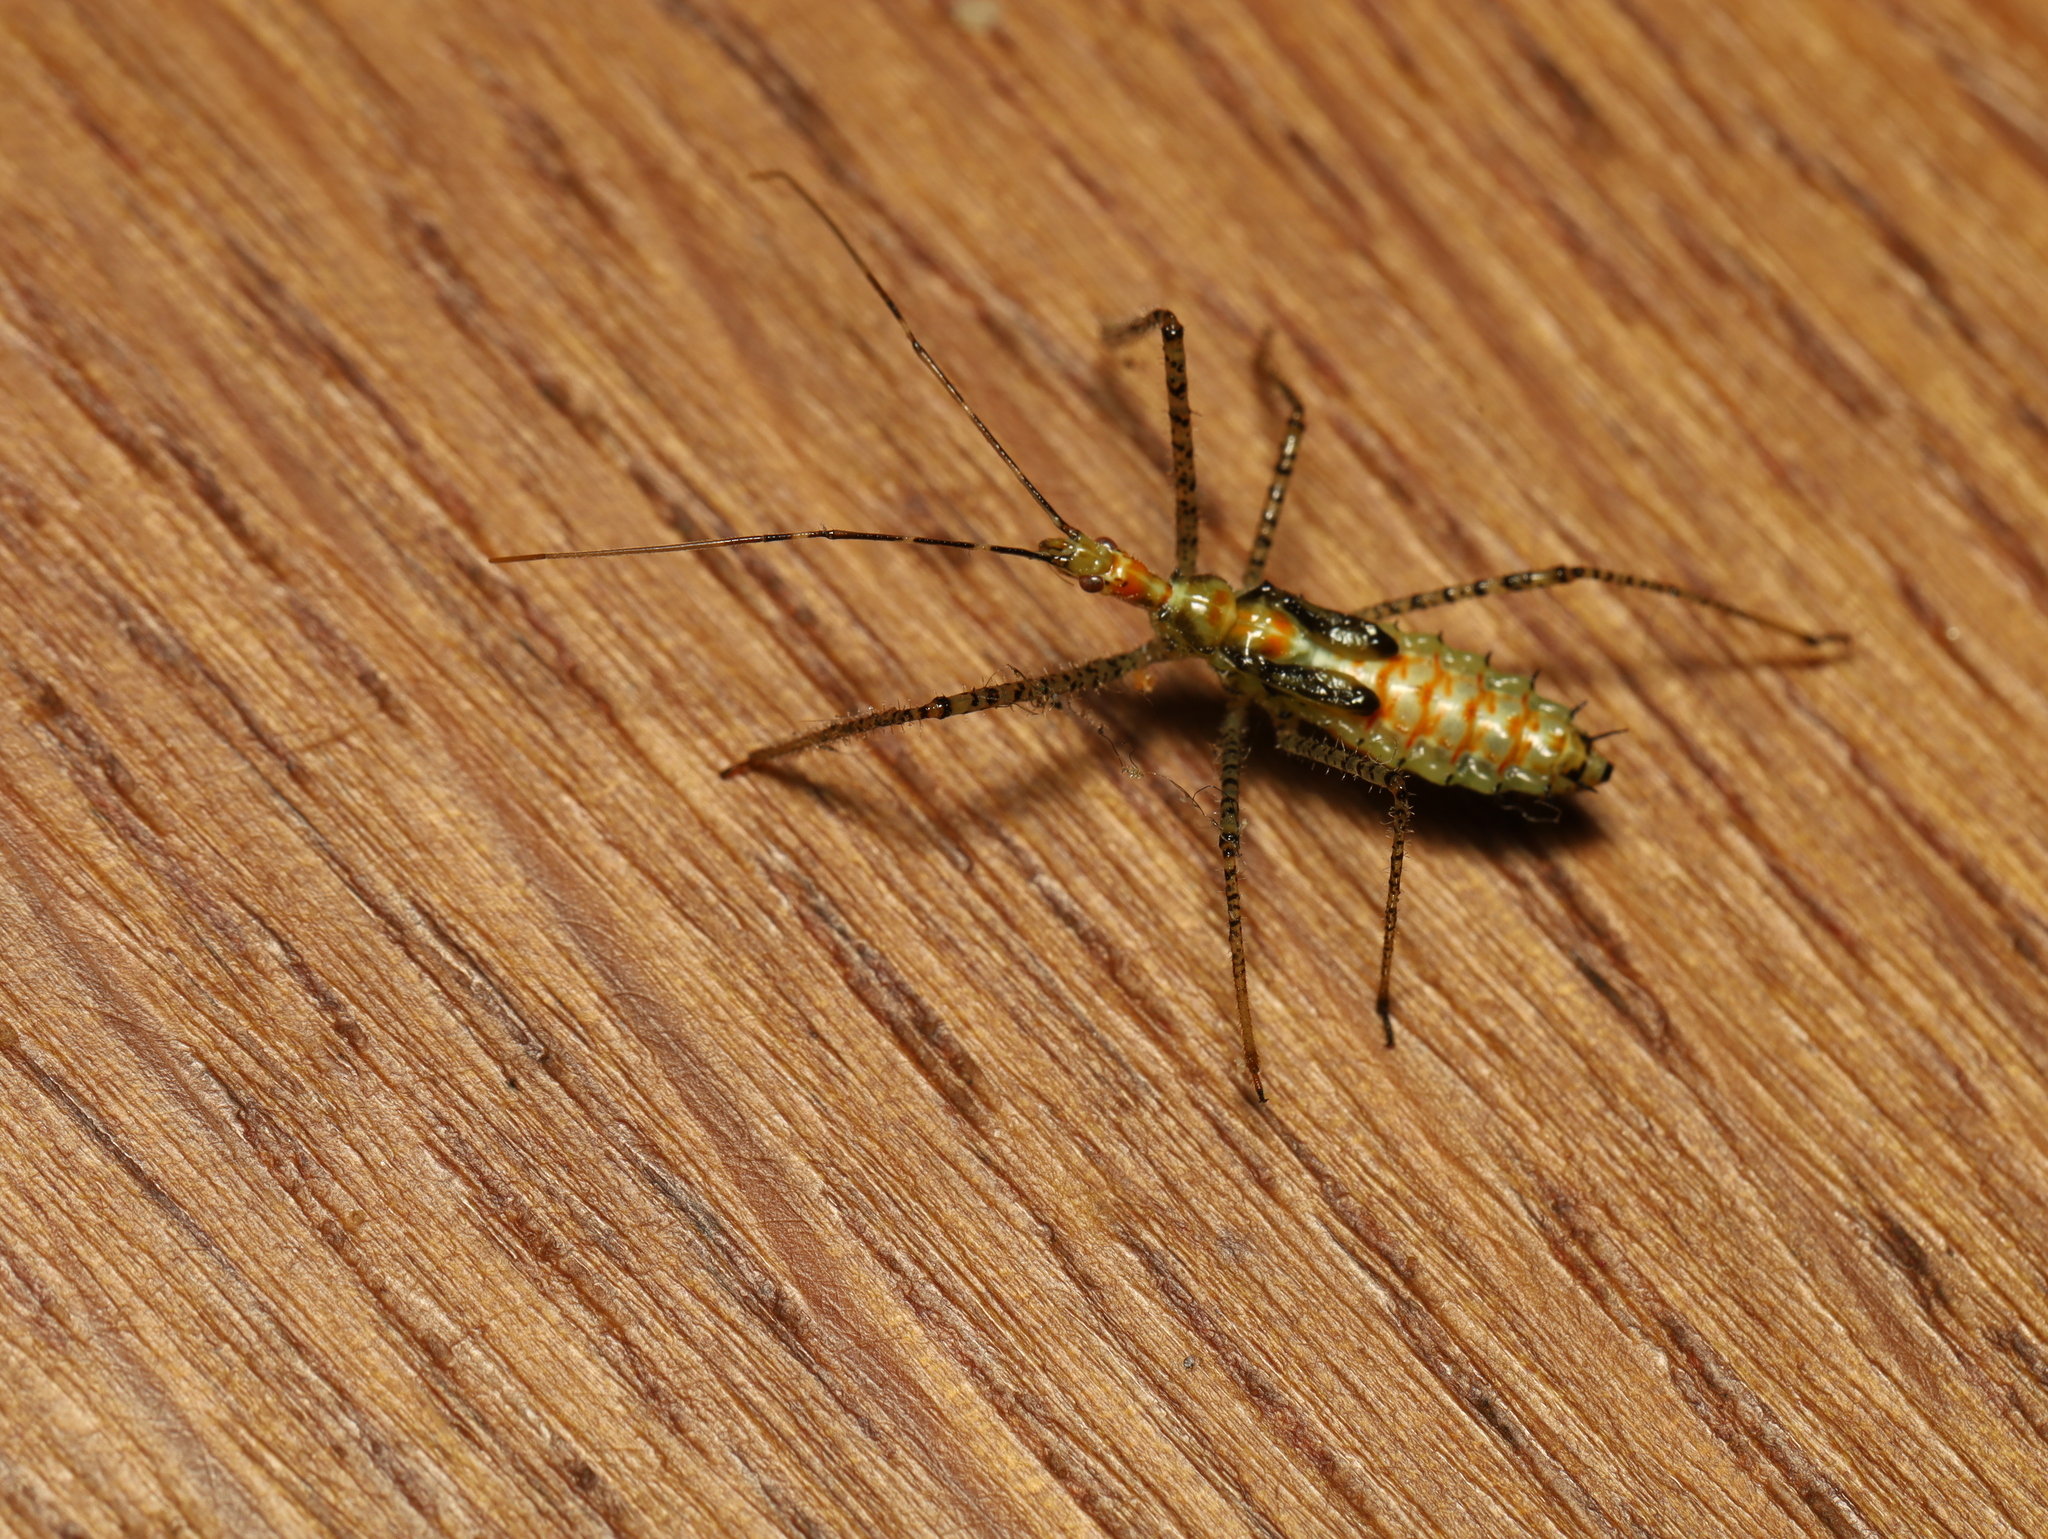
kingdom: Animalia
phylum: Arthropoda
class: Insecta
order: Hemiptera
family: Reduviidae
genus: Zelus
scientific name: Zelus renardii
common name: Assassin bug
